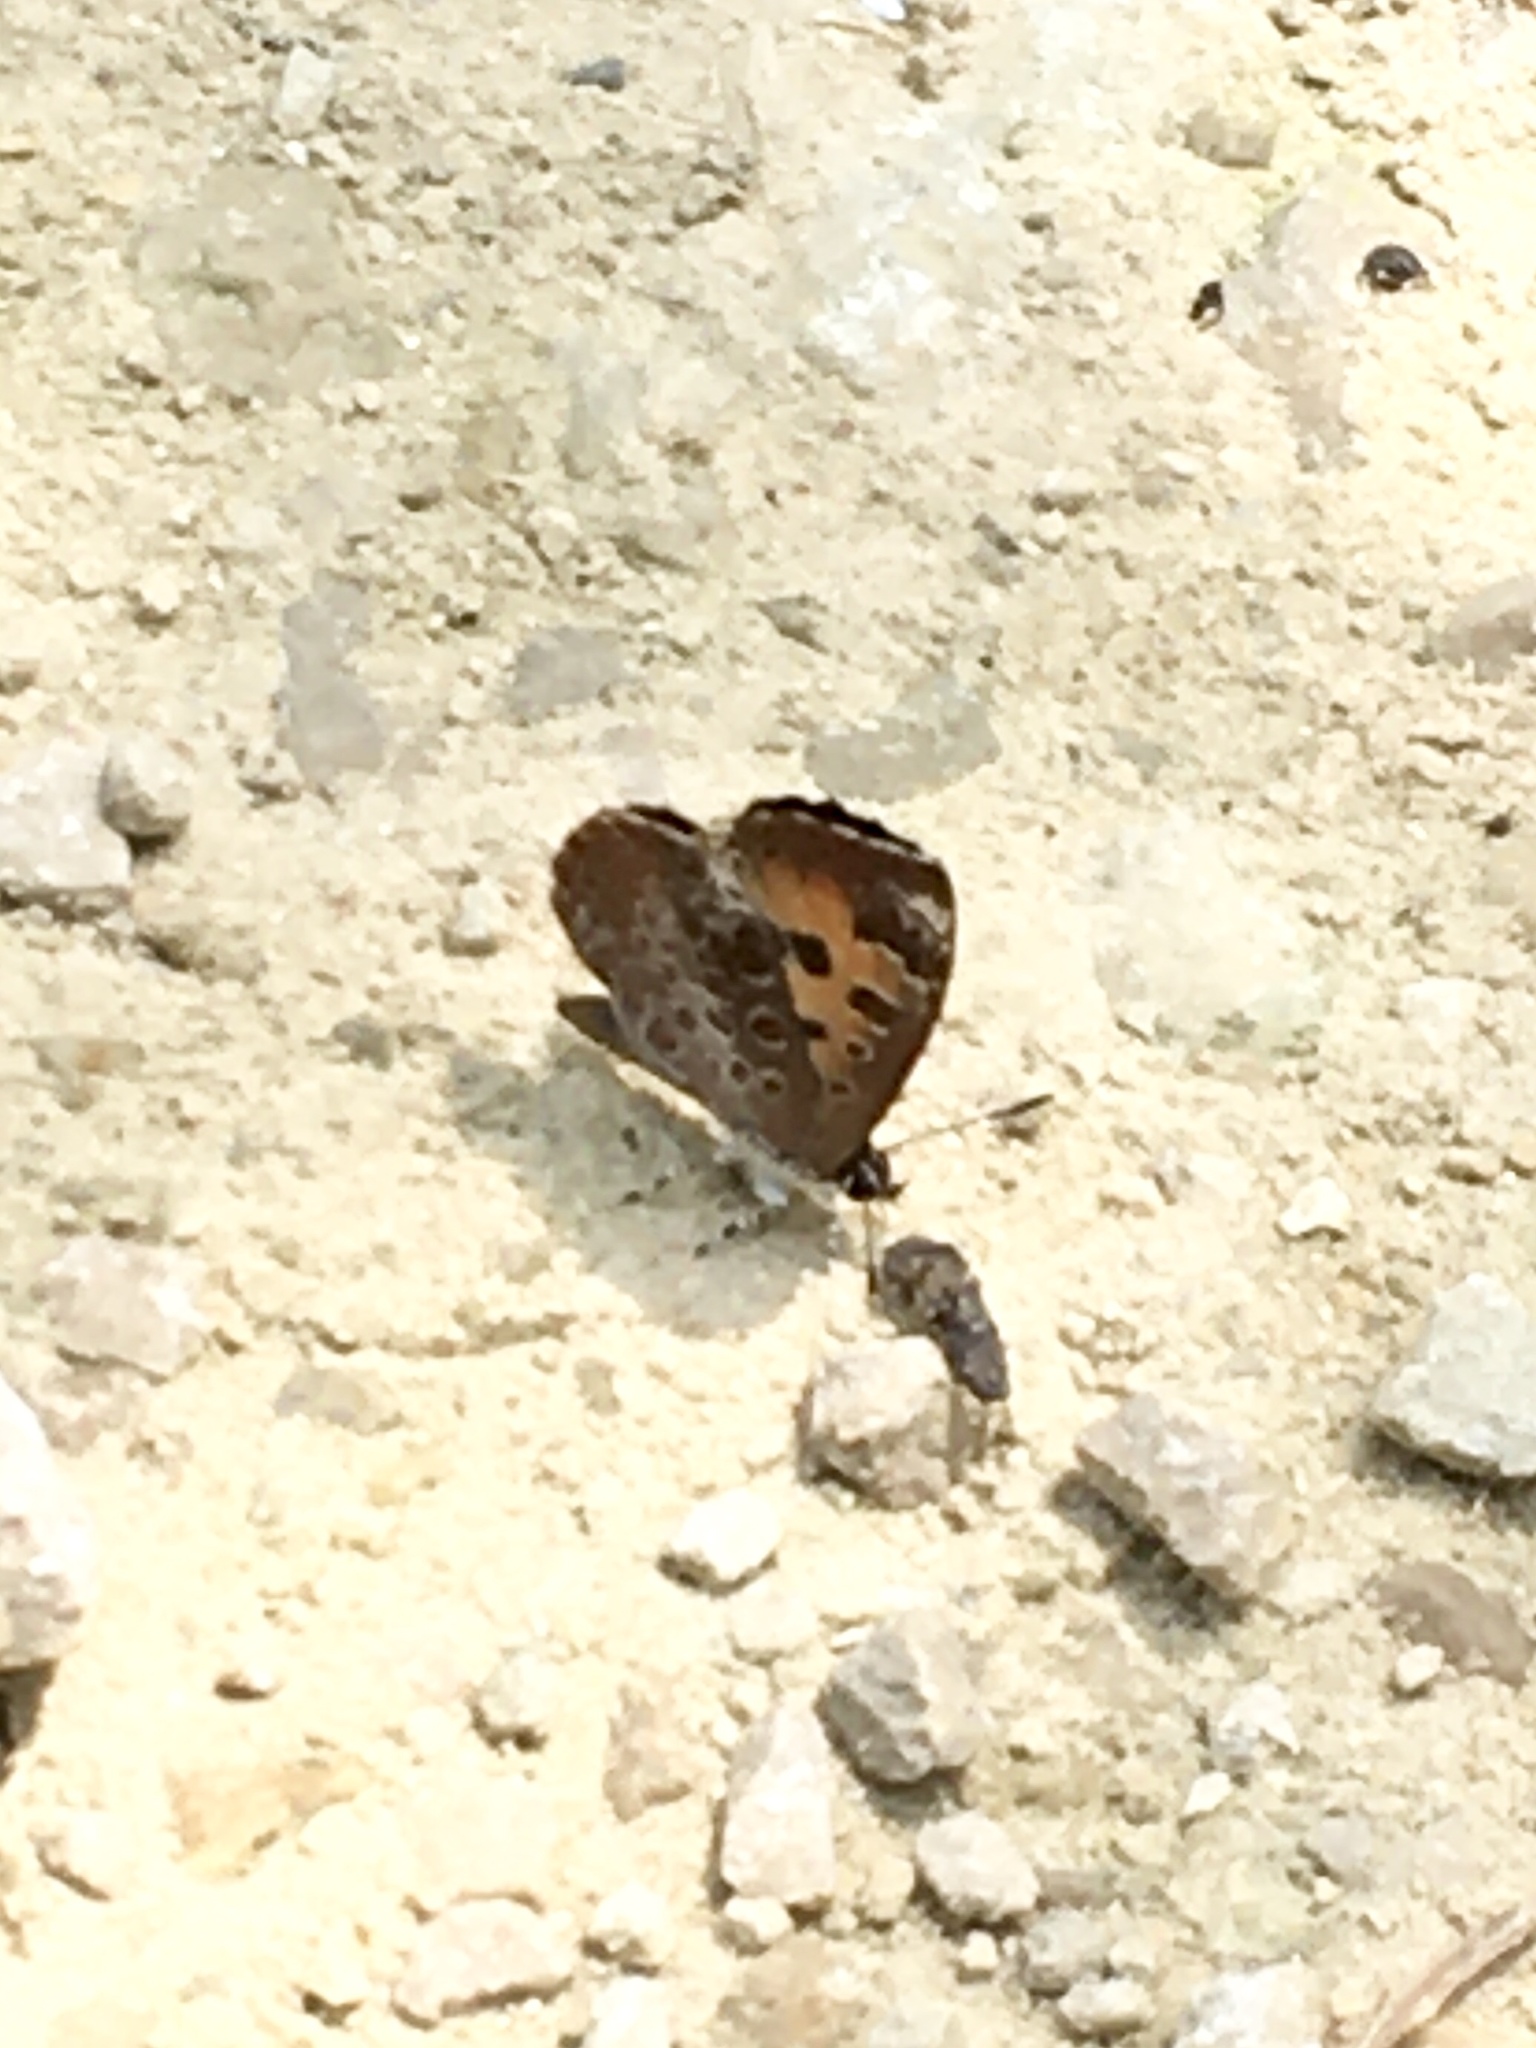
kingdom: Animalia
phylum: Arthropoda
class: Insecta
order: Lepidoptera
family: Lycaenidae
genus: Feniseca
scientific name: Feniseca tarquinius
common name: Harvester
